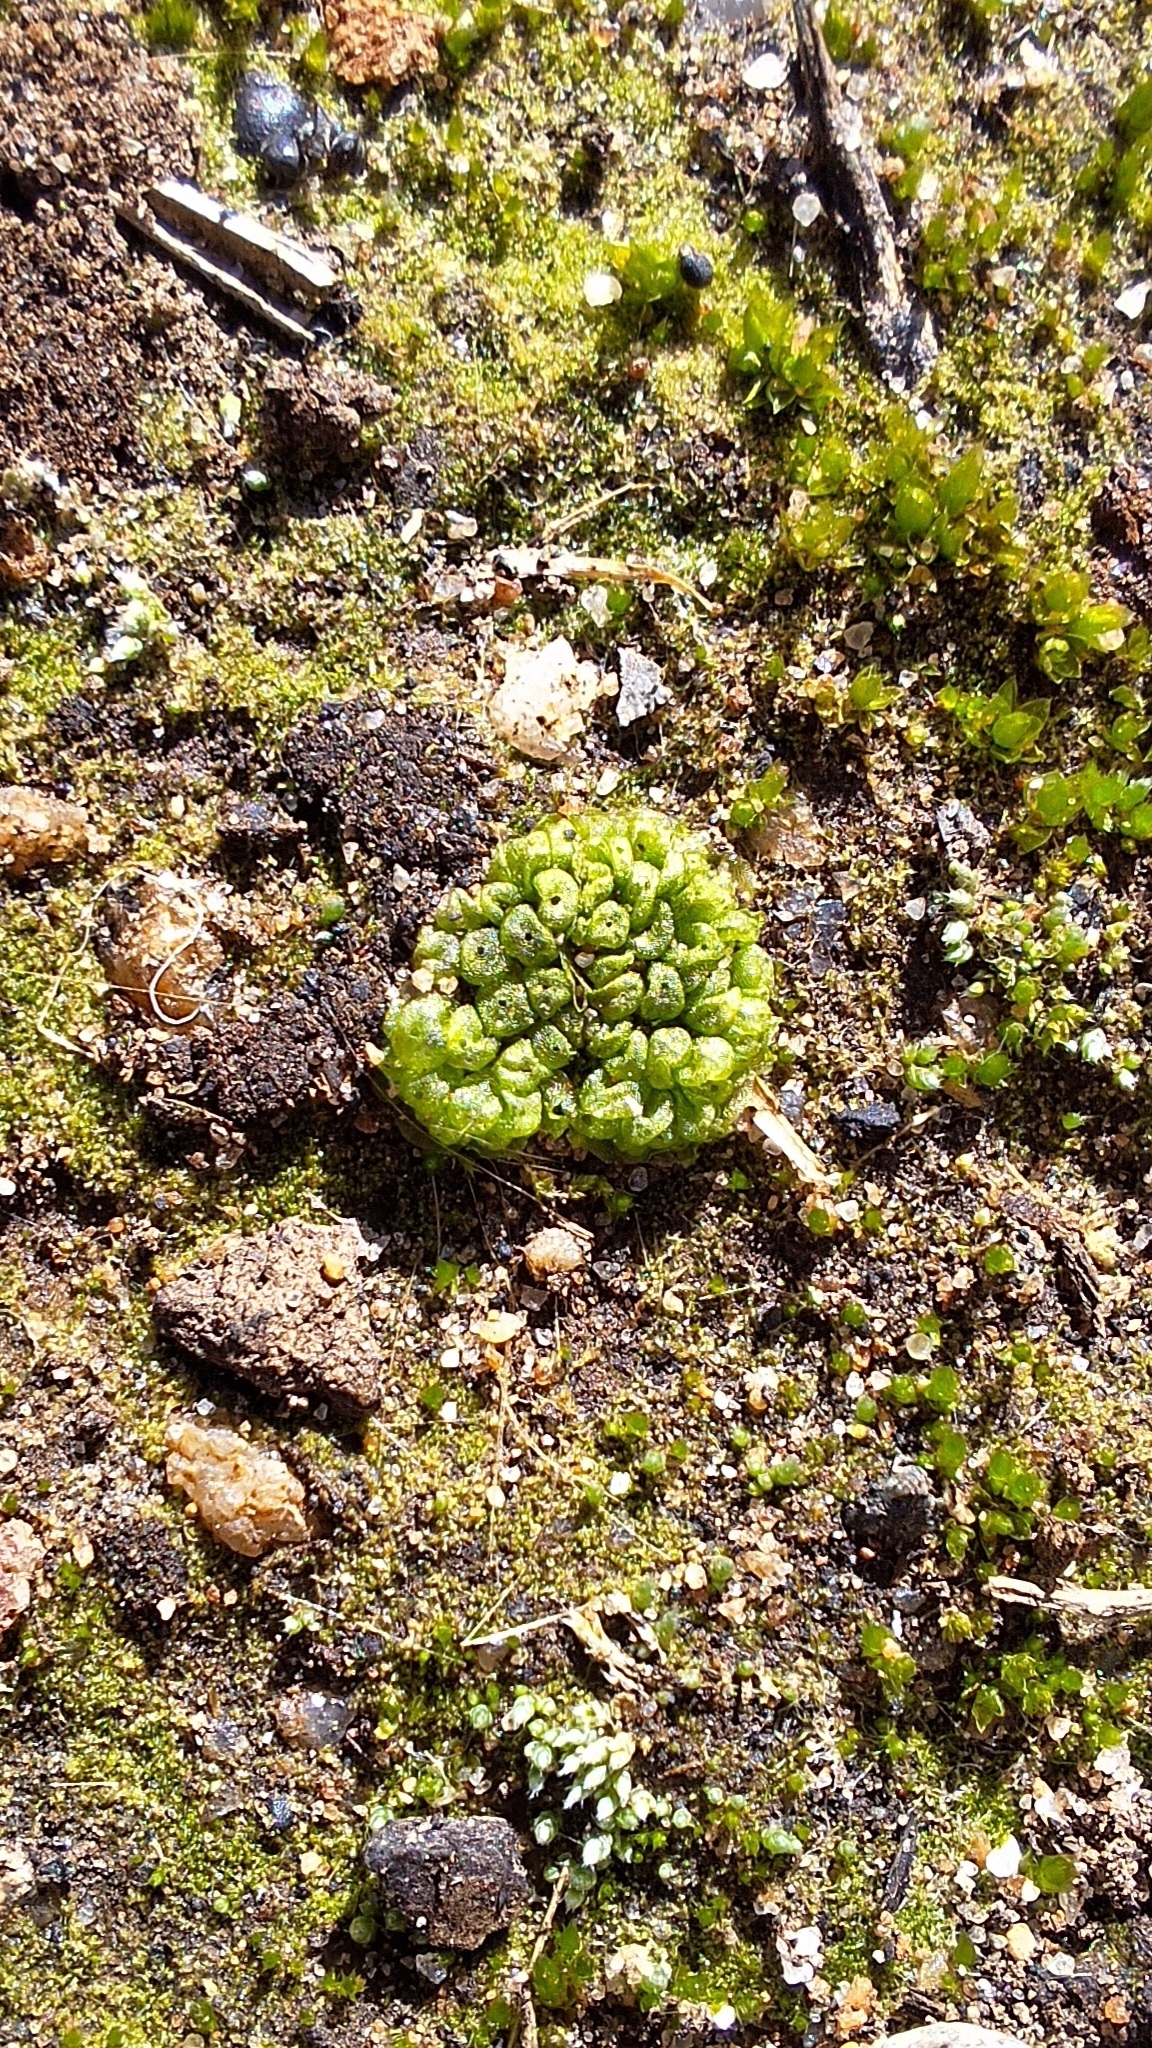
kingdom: Plantae
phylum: Marchantiophyta
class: Marchantiopsida
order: Sphaerocarpales
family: Sphaerocarpaceae
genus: Sphaerocarpos
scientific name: Sphaerocarpos texanus
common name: Texas balloonwort
